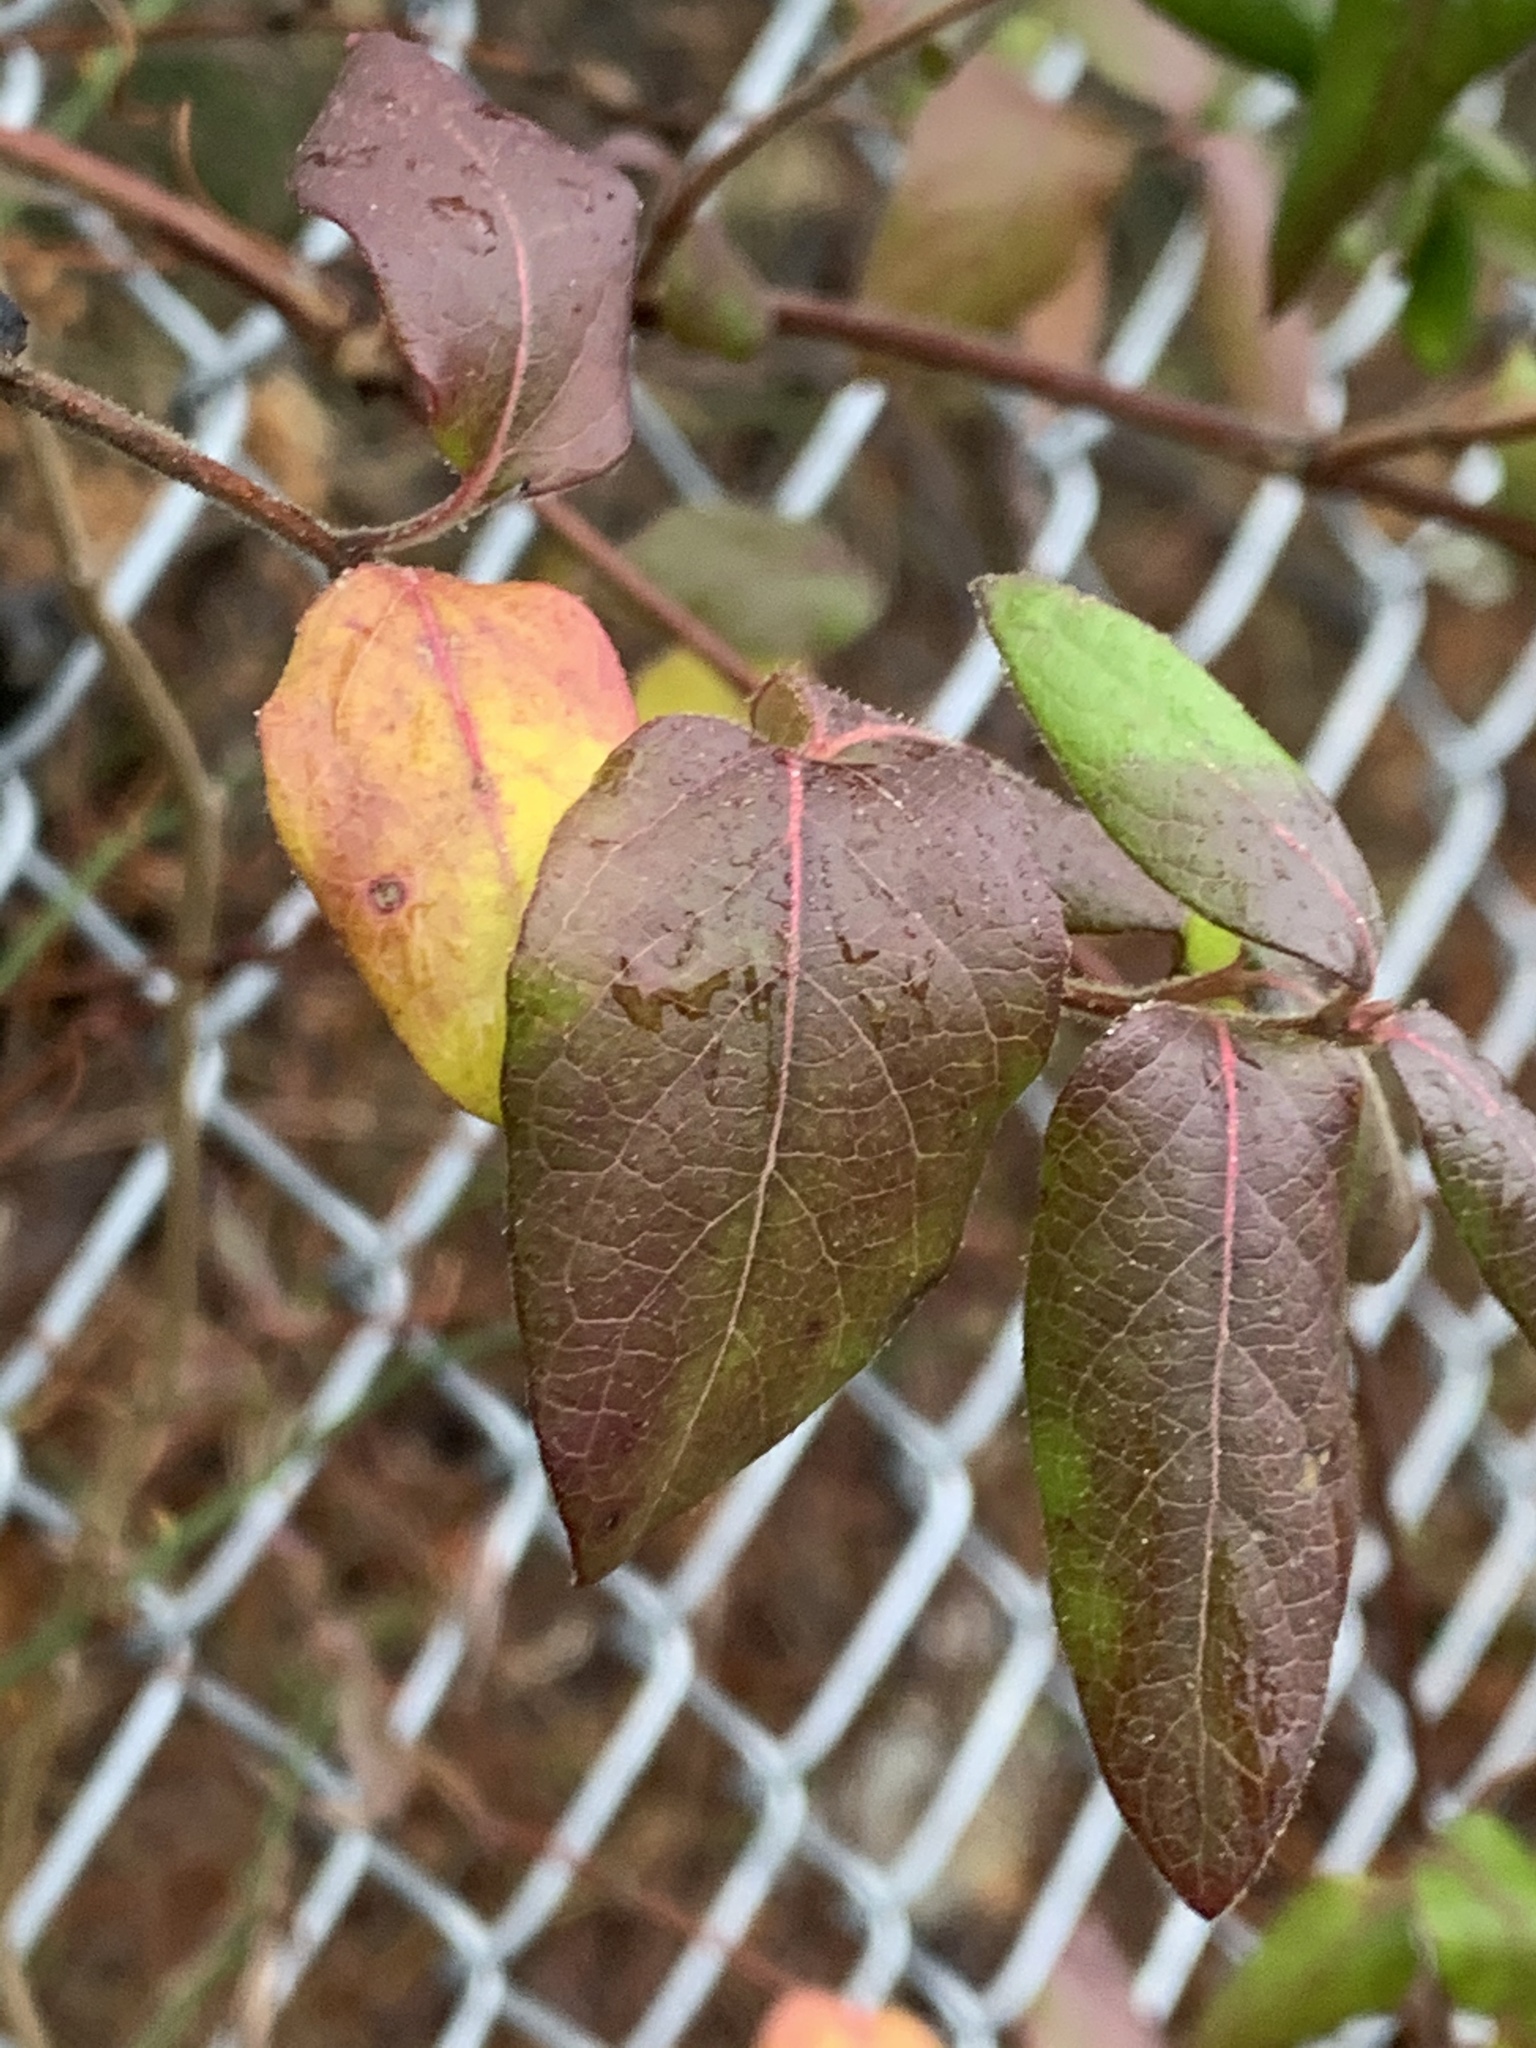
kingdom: Plantae
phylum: Tracheophyta
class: Magnoliopsida
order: Dipsacales
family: Caprifoliaceae
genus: Lonicera
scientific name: Lonicera japonica
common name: Japanese honeysuckle
